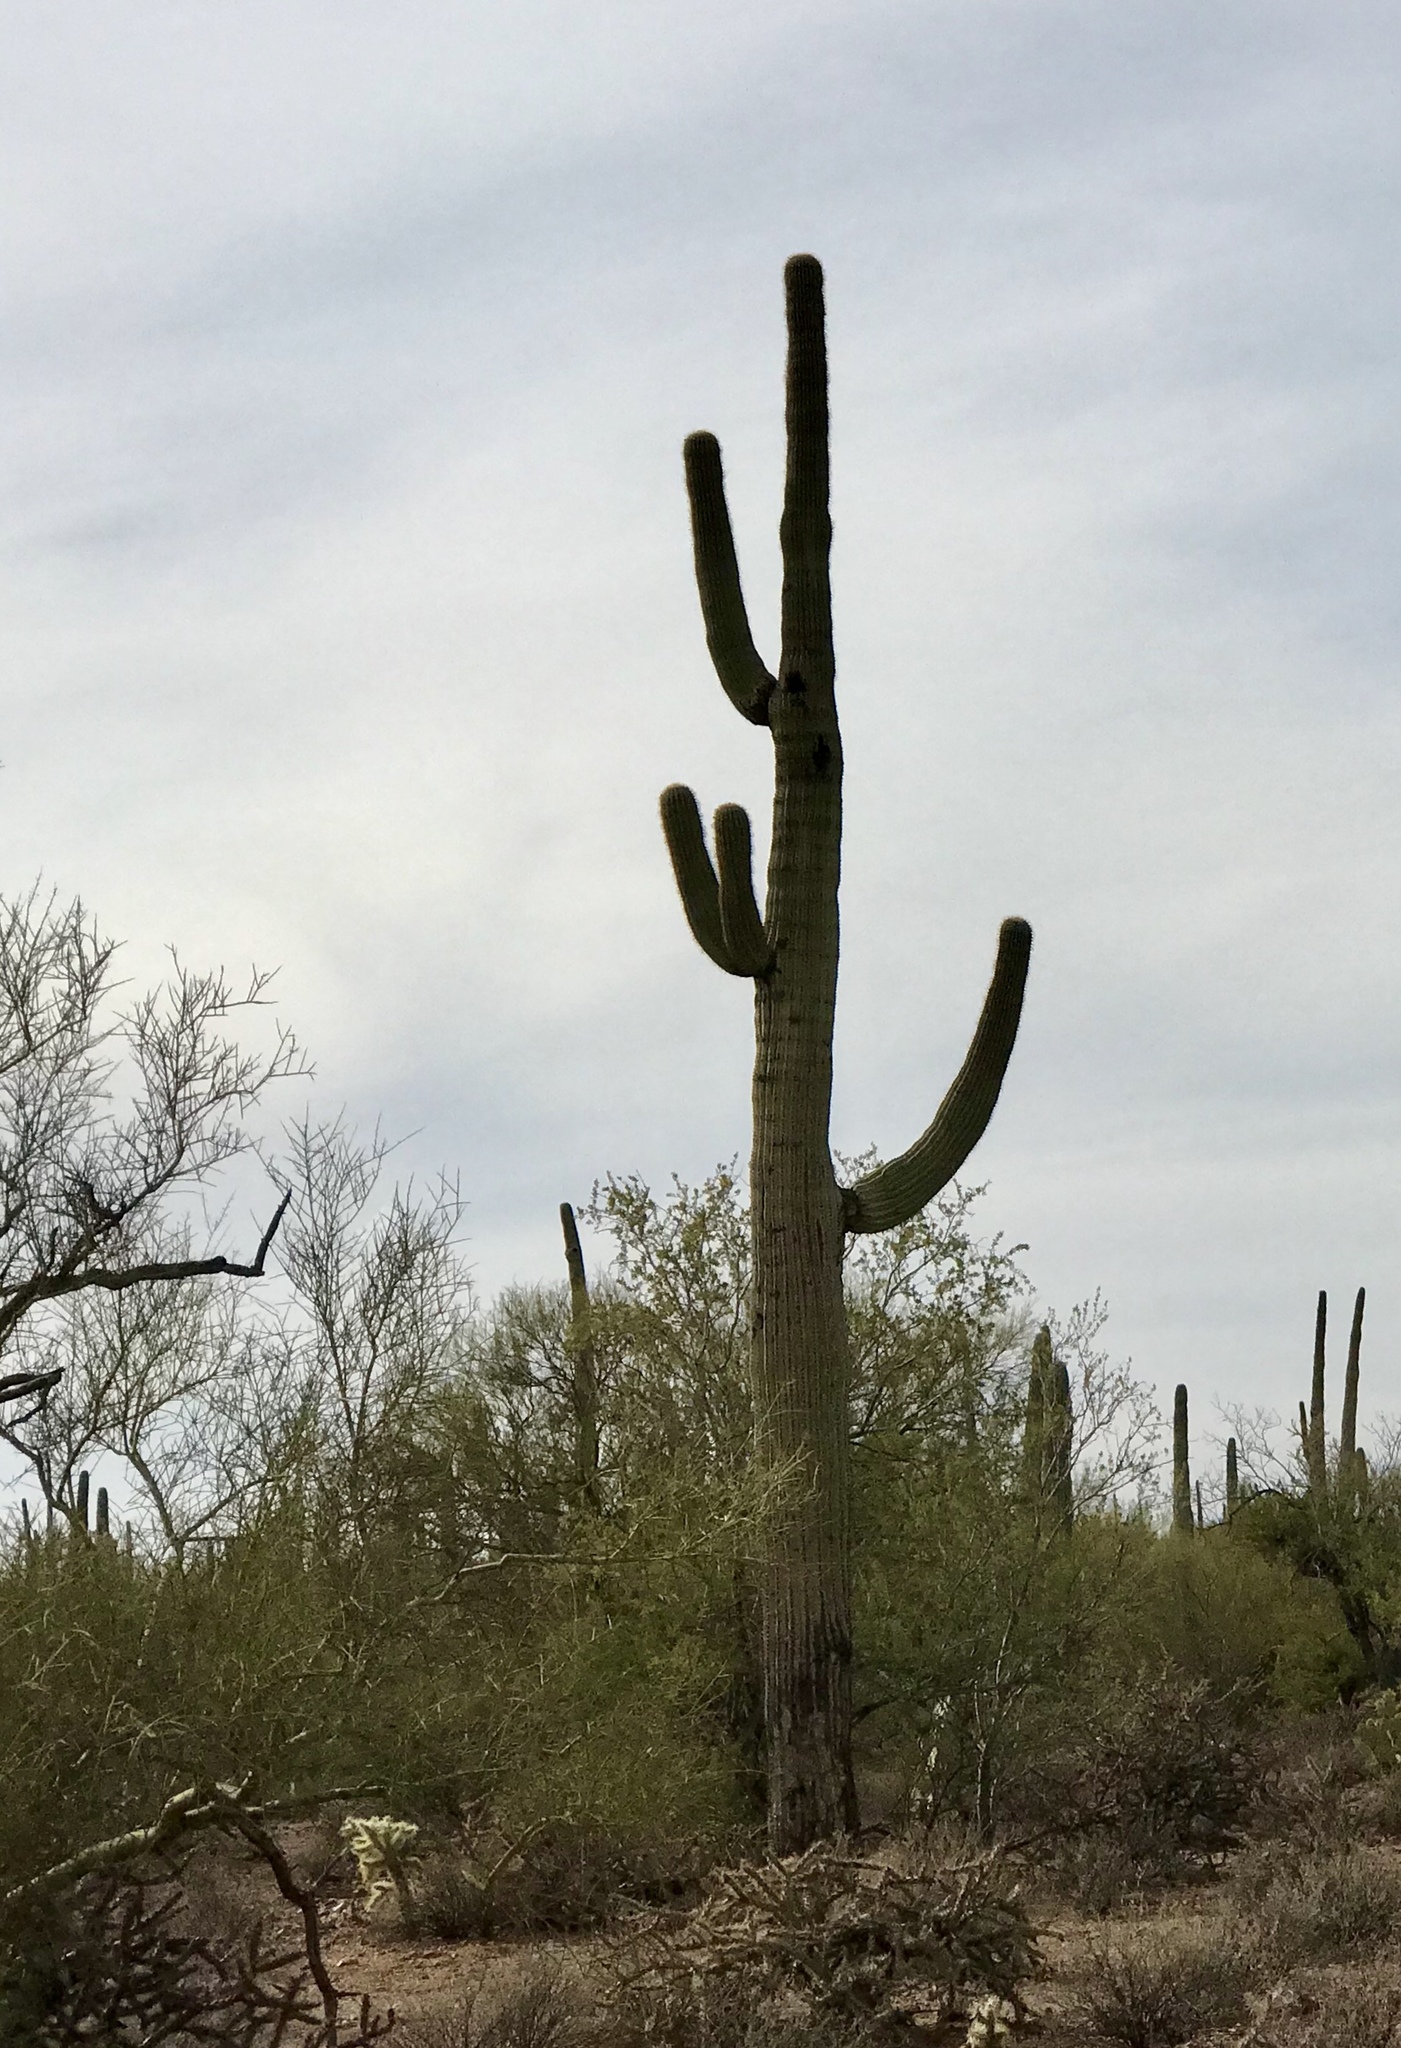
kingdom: Plantae
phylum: Tracheophyta
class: Magnoliopsida
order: Caryophyllales
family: Cactaceae
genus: Carnegiea
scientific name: Carnegiea gigantea
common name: Saguaro
